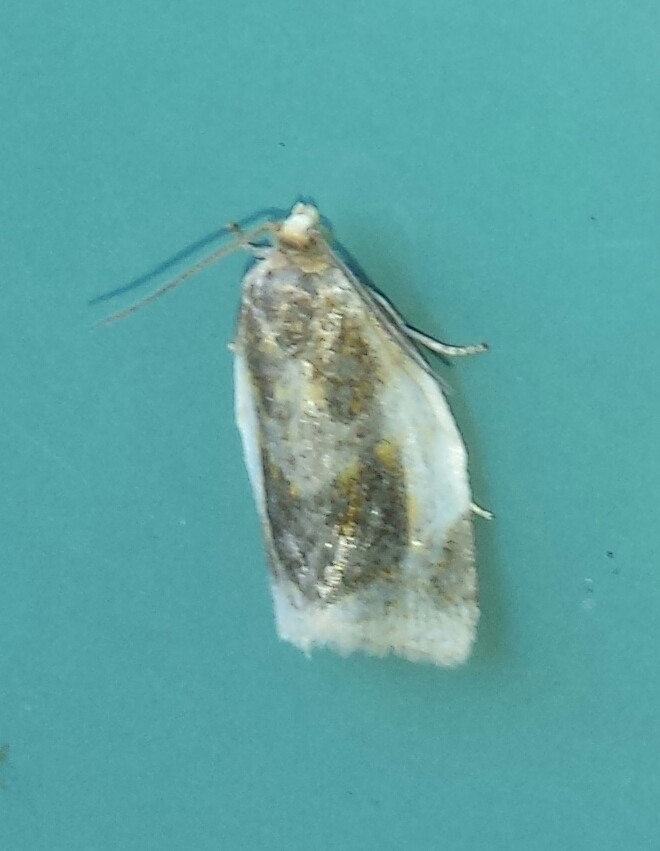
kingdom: Animalia
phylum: Arthropoda
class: Insecta
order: Lepidoptera
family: Tortricidae
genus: Clepsis
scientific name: Clepsis melaleucanus
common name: American apple tortrix
